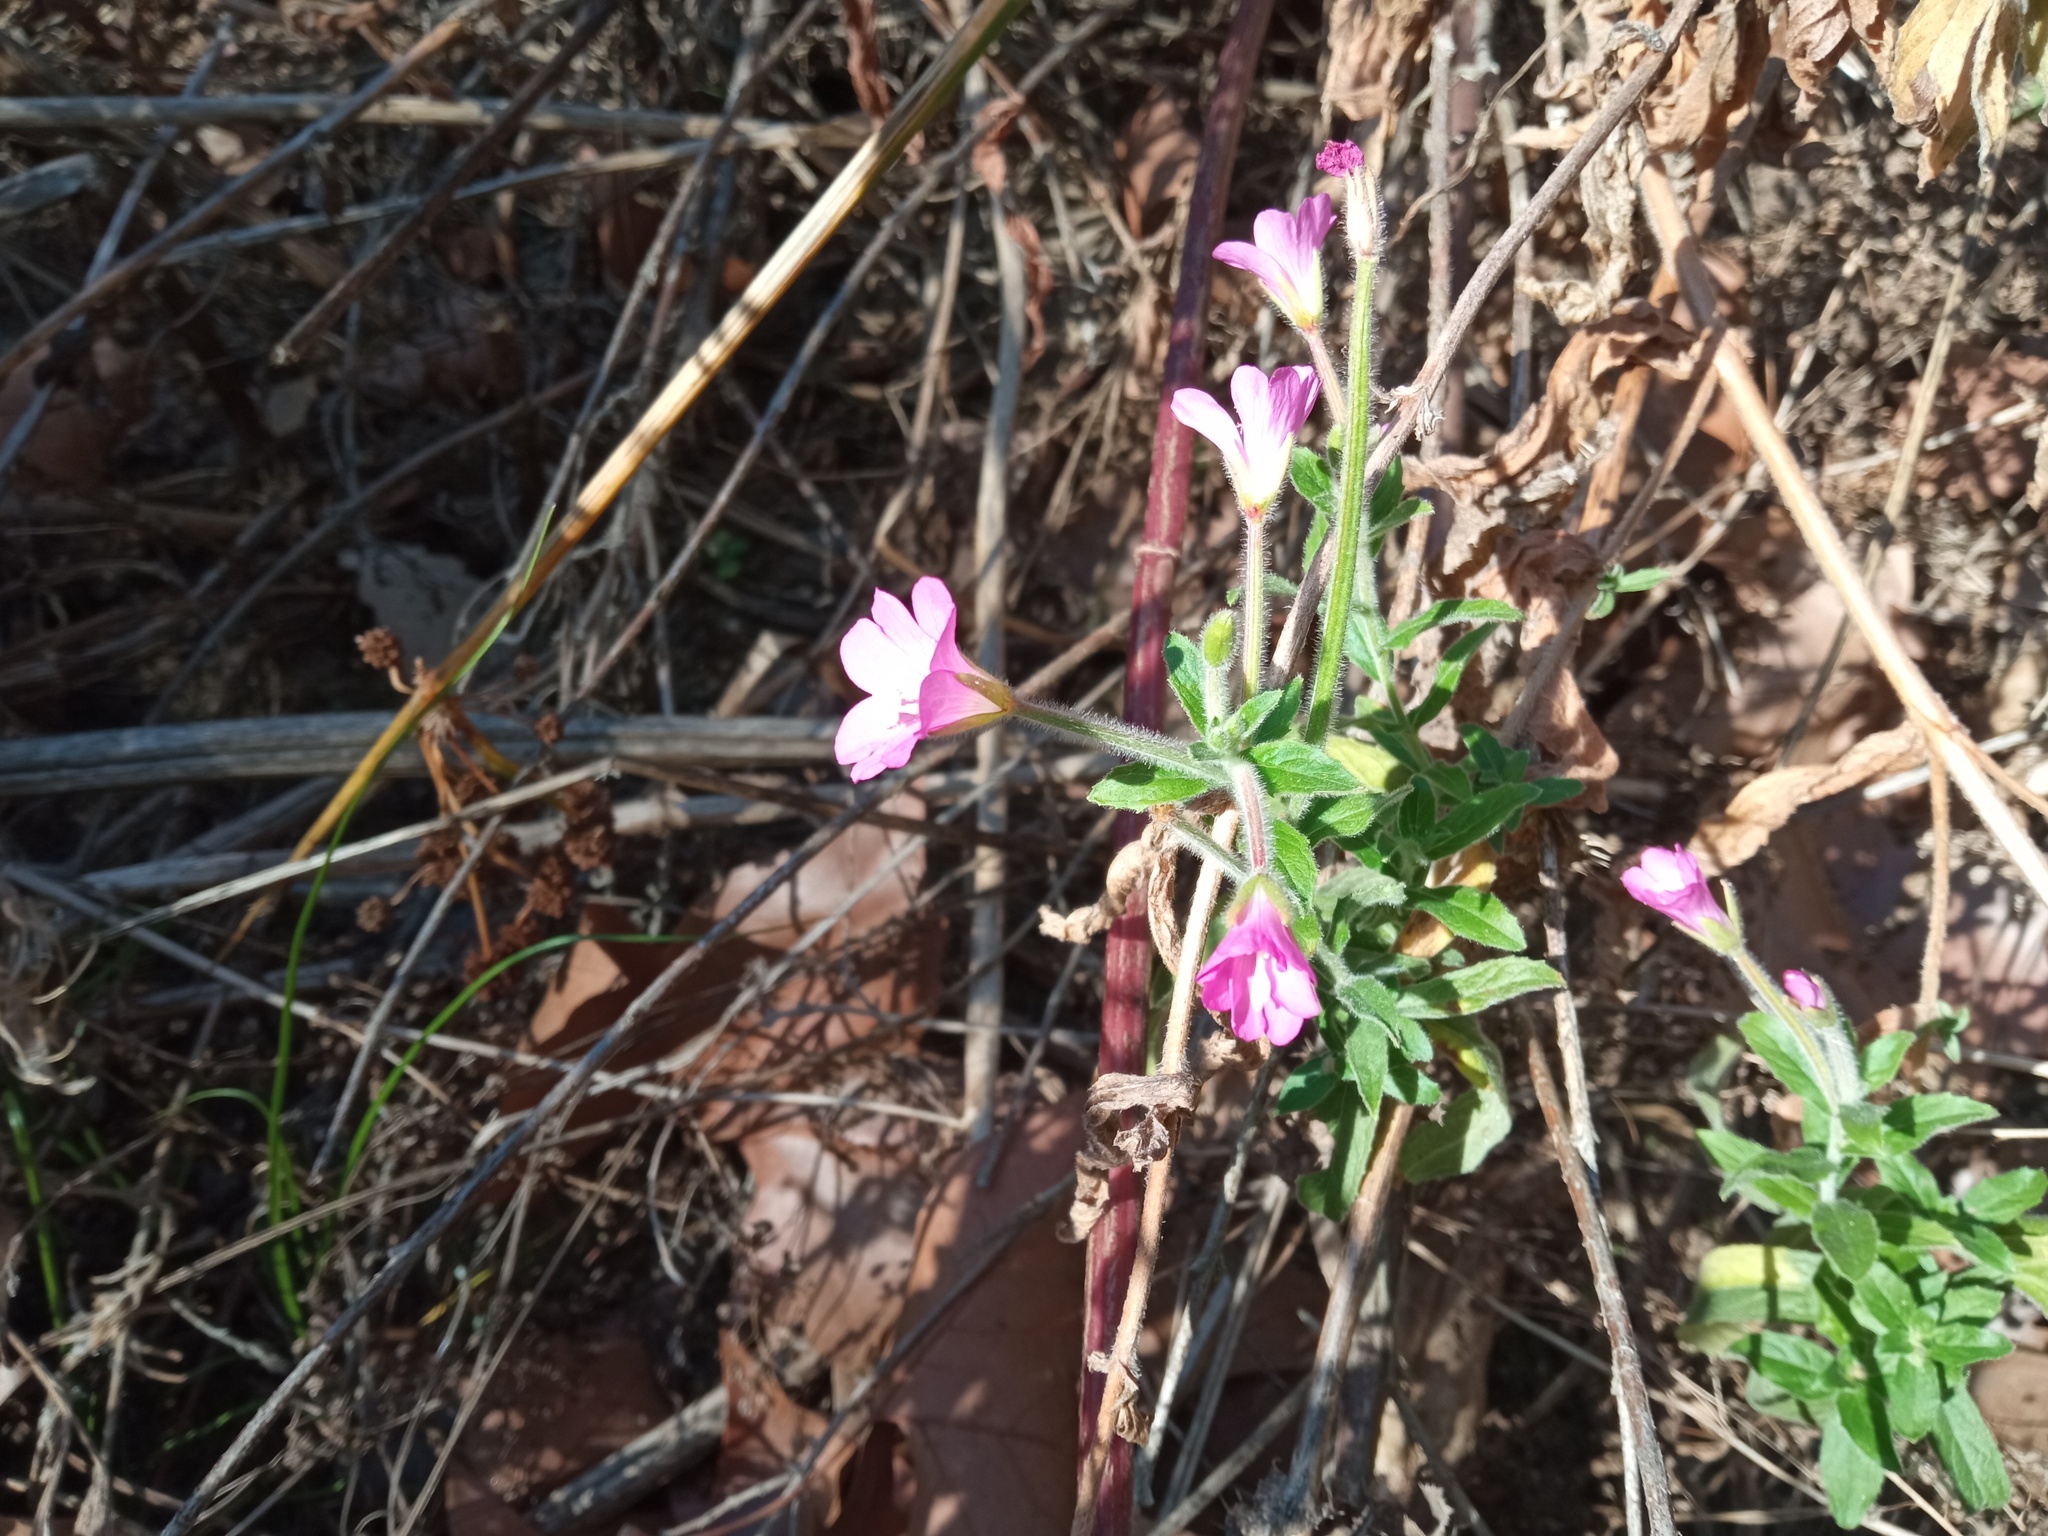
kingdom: Plantae
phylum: Tracheophyta
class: Magnoliopsida
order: Myrtales
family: Onagraceae
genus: Epilobium
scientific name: Epilobium hirsutum
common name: Great willowherb
